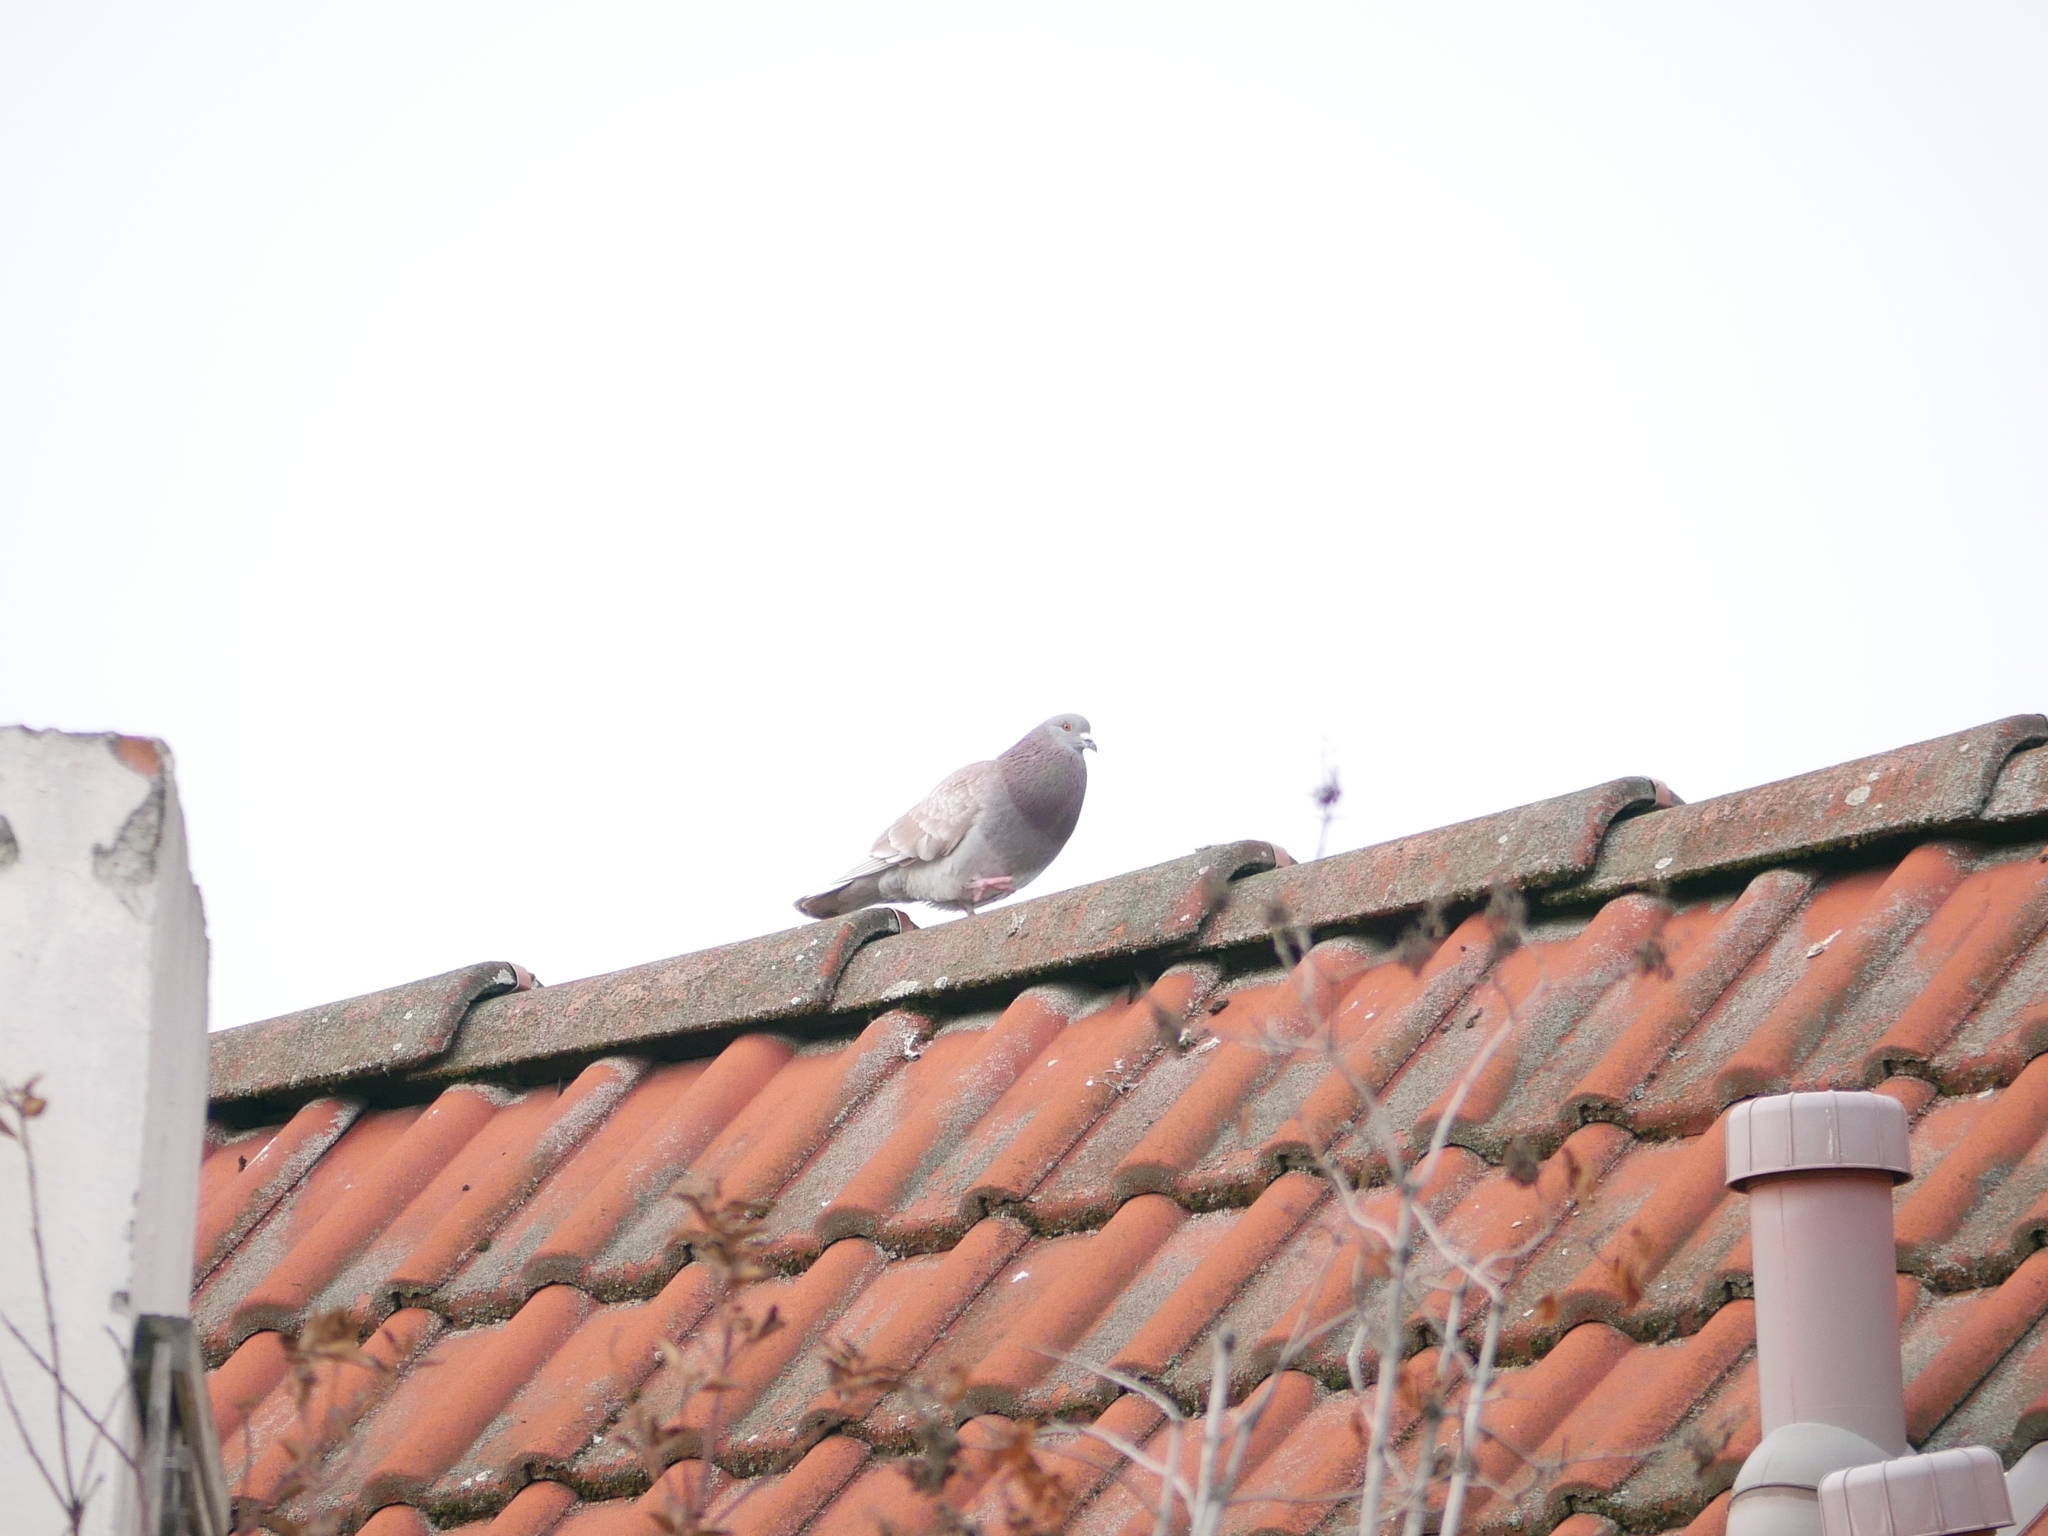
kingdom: Animalia
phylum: Chordata
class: Aves
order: Columbiformes
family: Columbidae
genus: Columba
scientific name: Columba livia
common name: Rock pigeon
